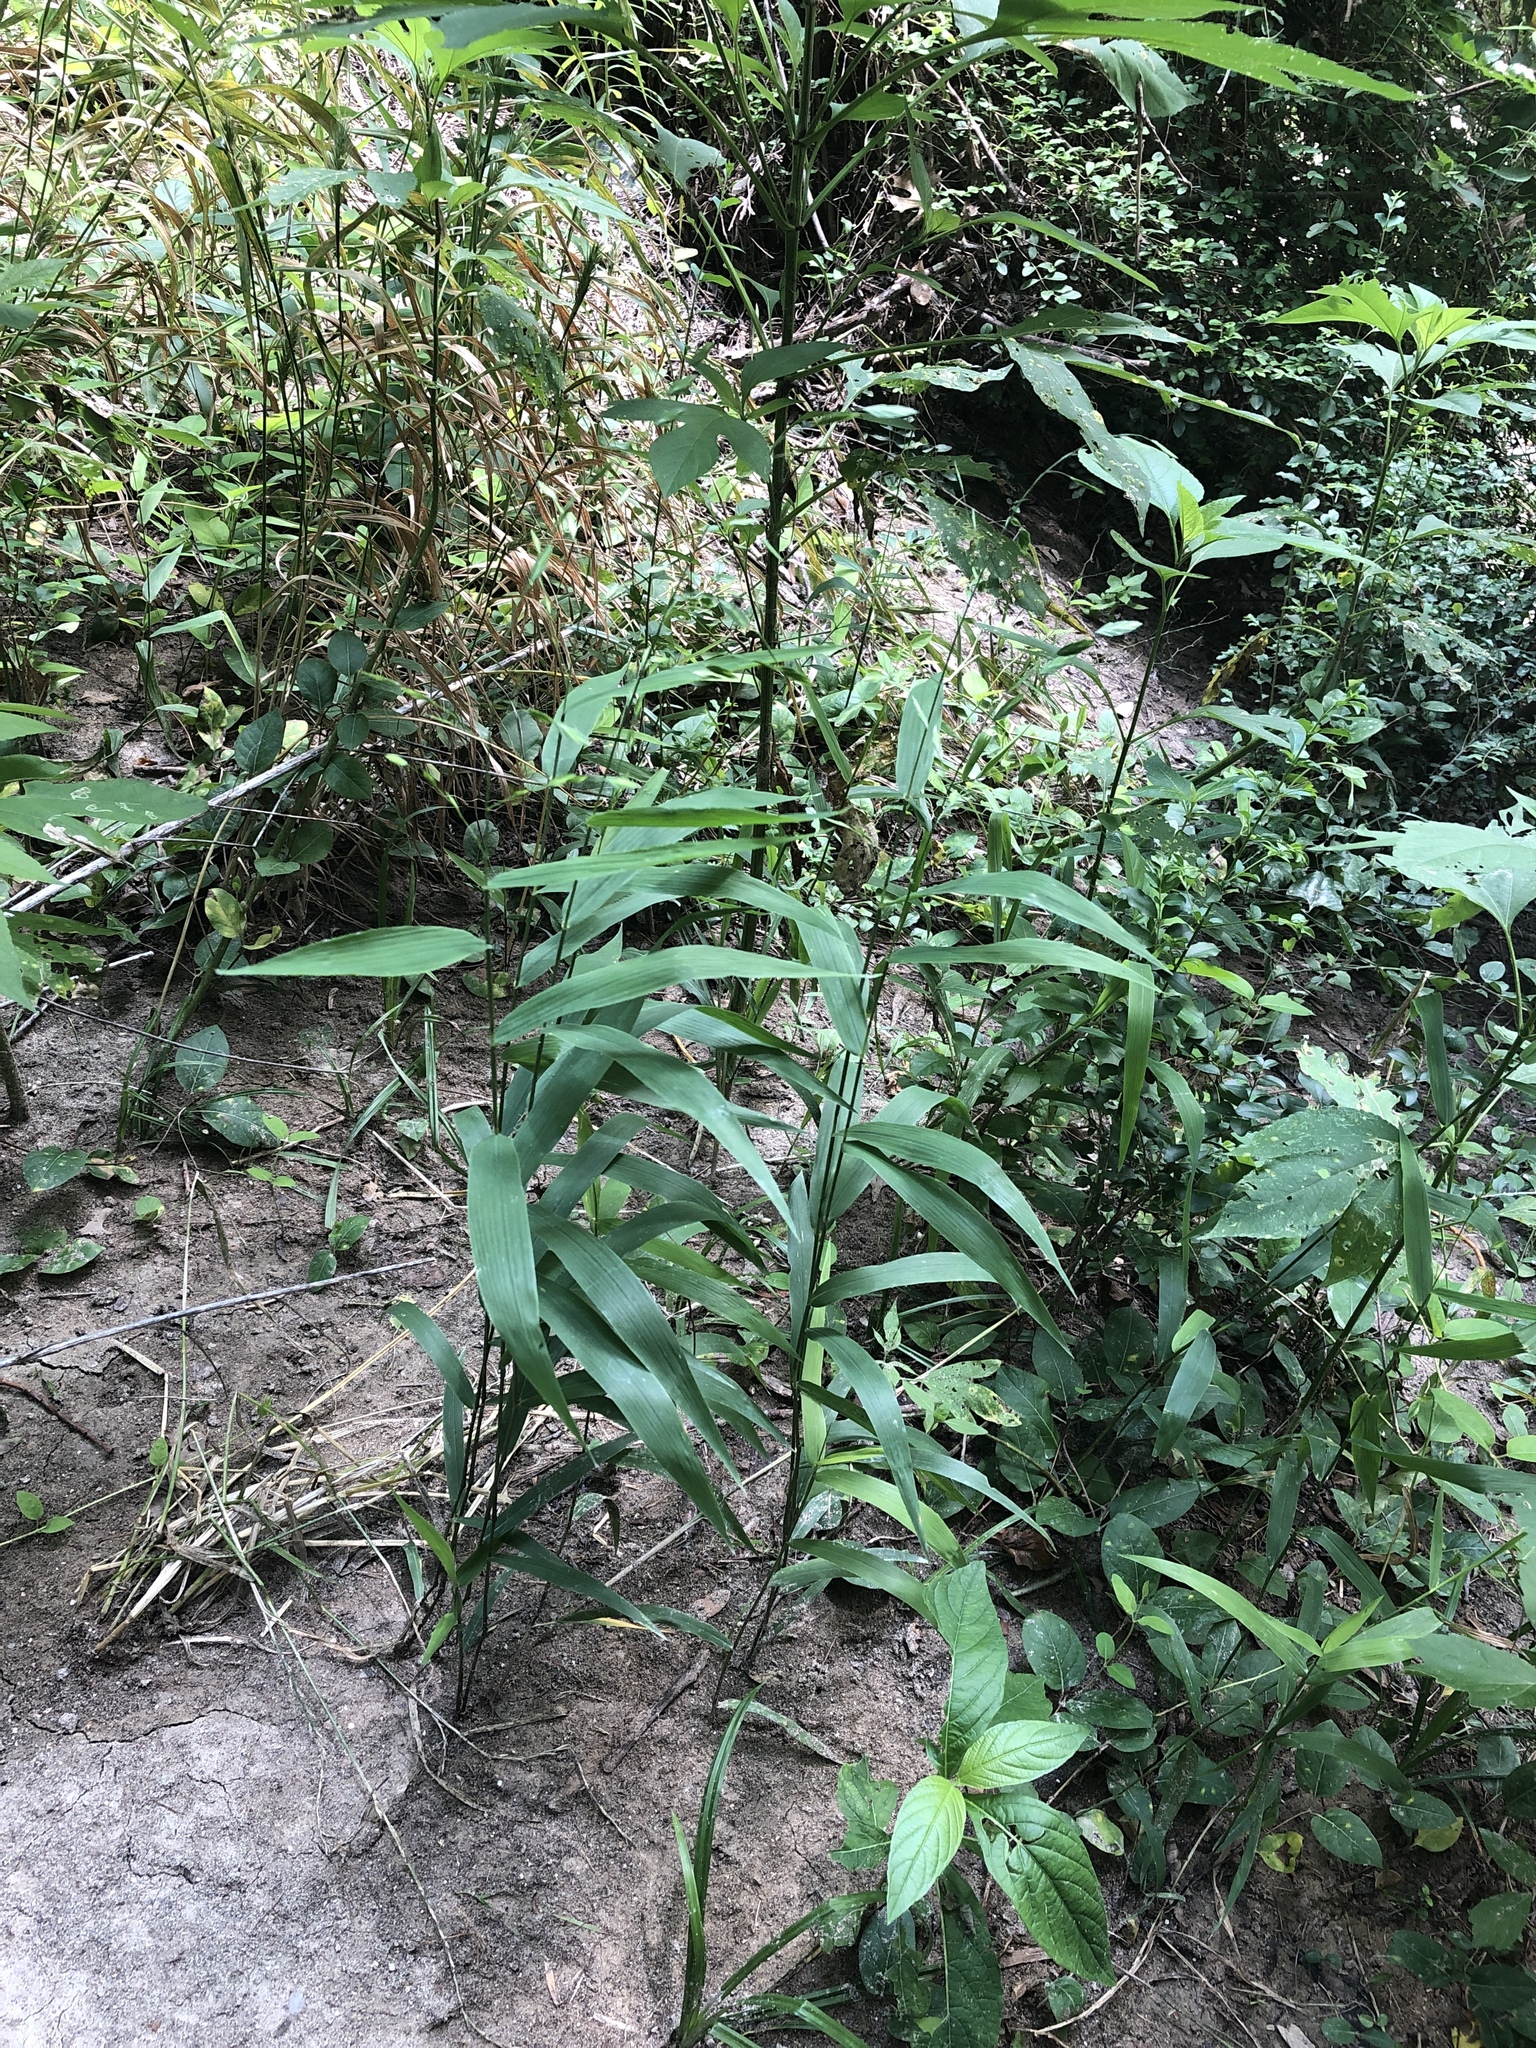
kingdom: Plantae
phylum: Tracheophyta
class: Liliopsida
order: Poales
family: Poaceae
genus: Chasmanthium
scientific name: Chasmanthium latifolium
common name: Broad-leaved chasmanthium
